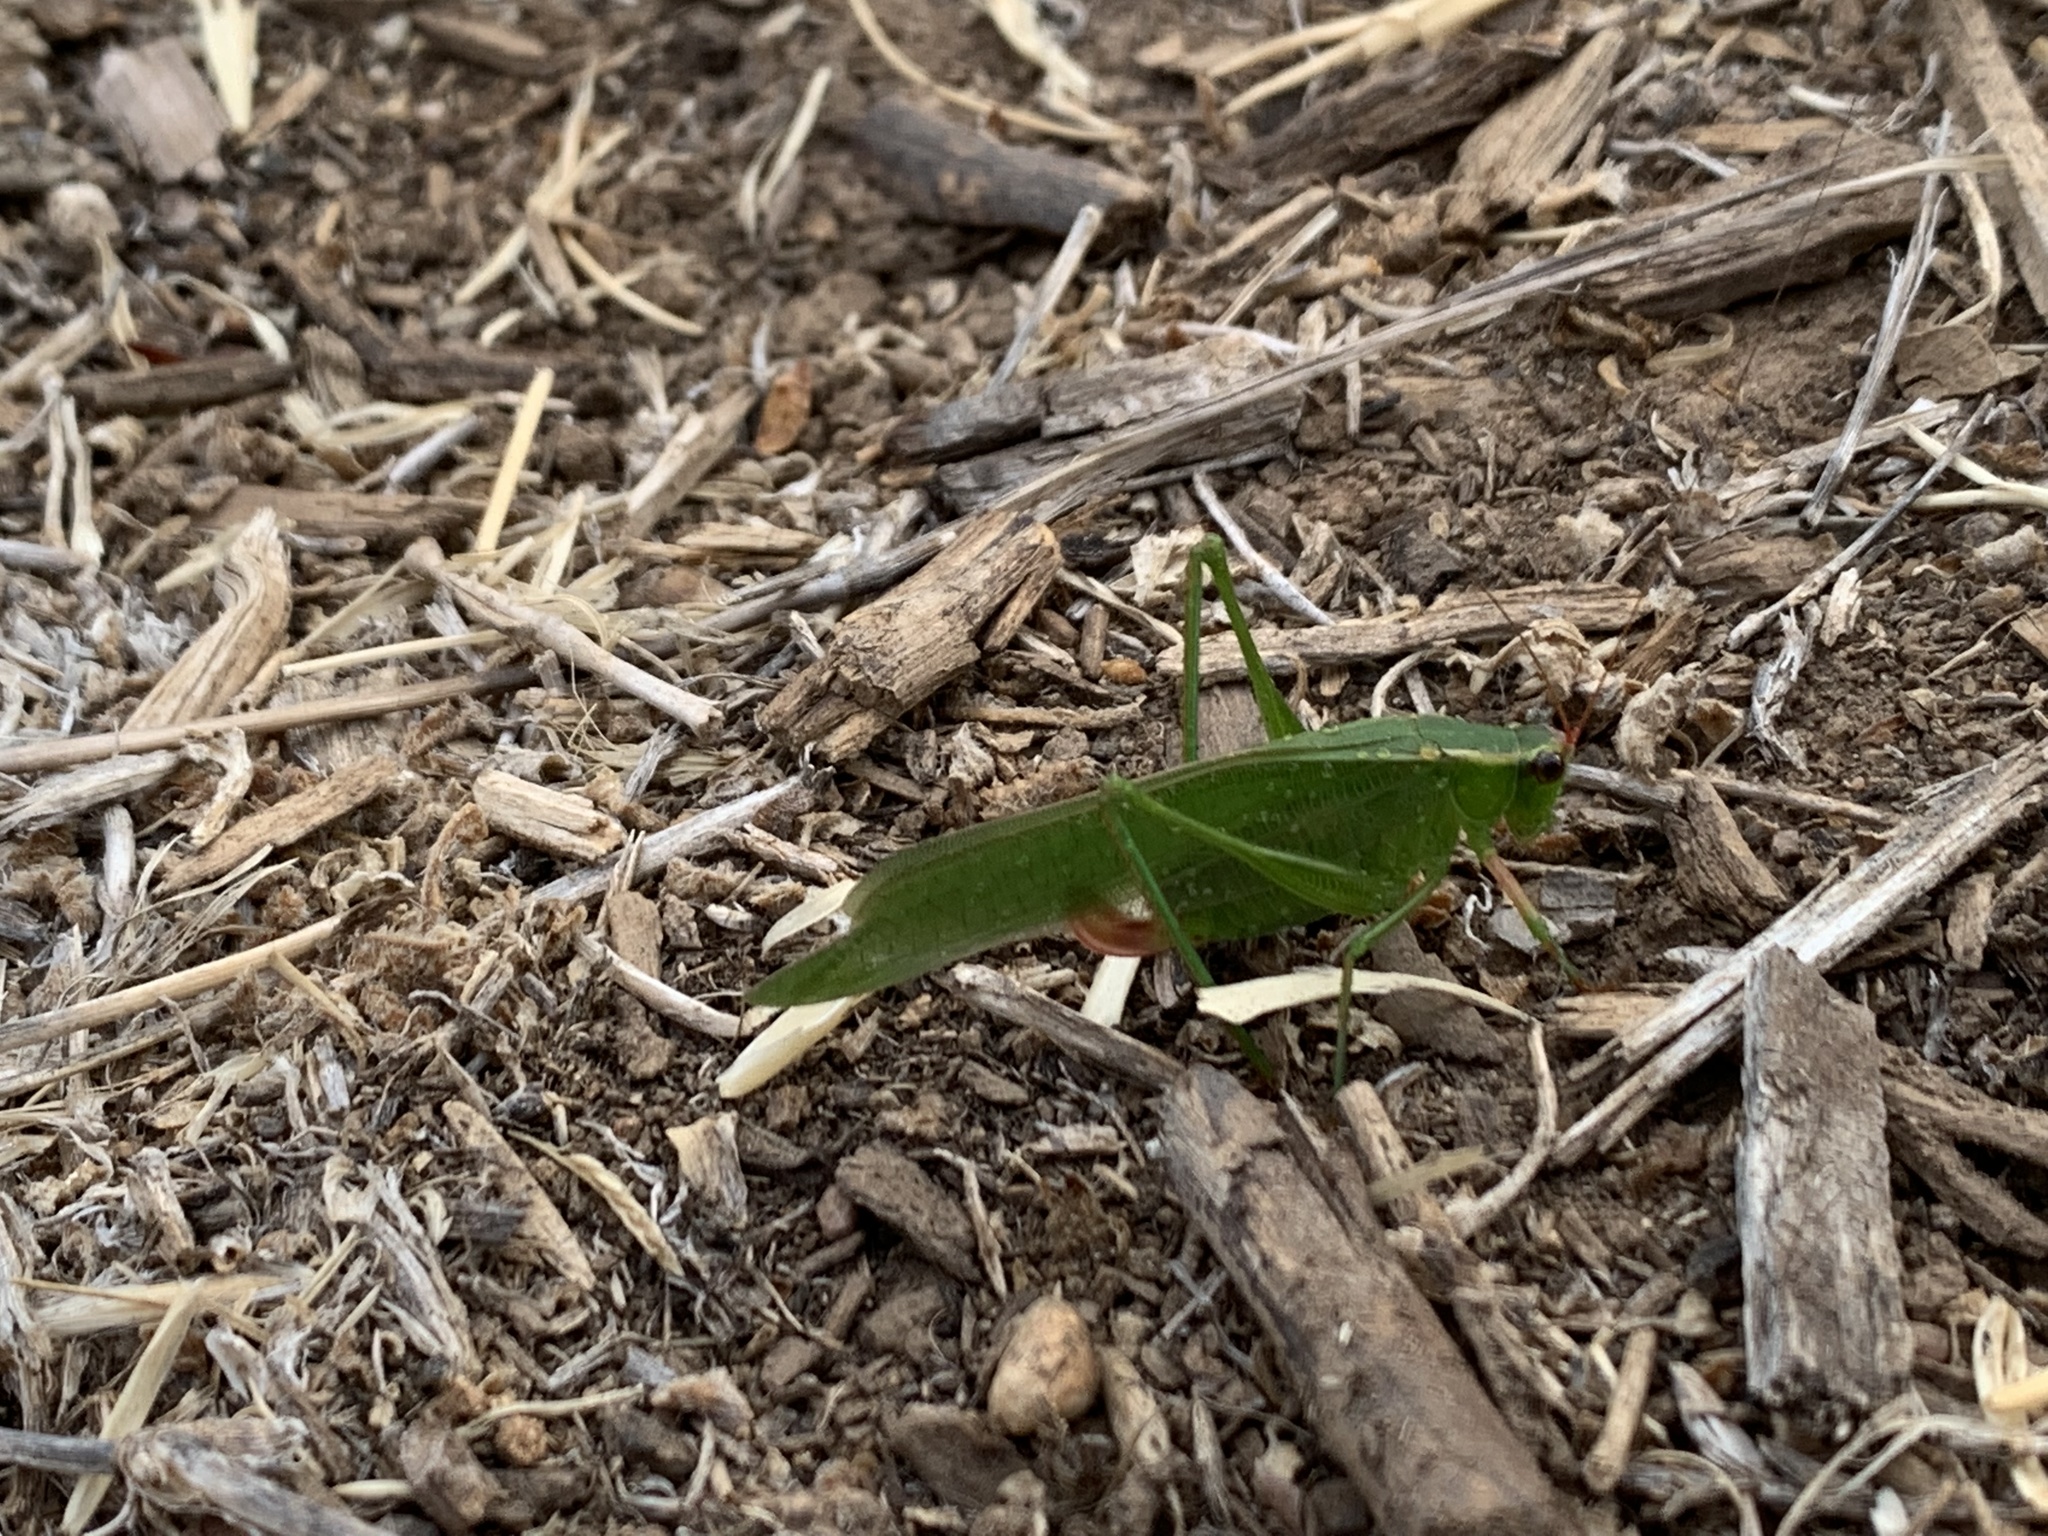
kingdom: Animalia
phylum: Arthropoda
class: Insecta
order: Orthoptera
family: Tettigoniidae
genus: Scudderia
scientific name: Scudderia furcata
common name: Fork-tailed bush katydid
